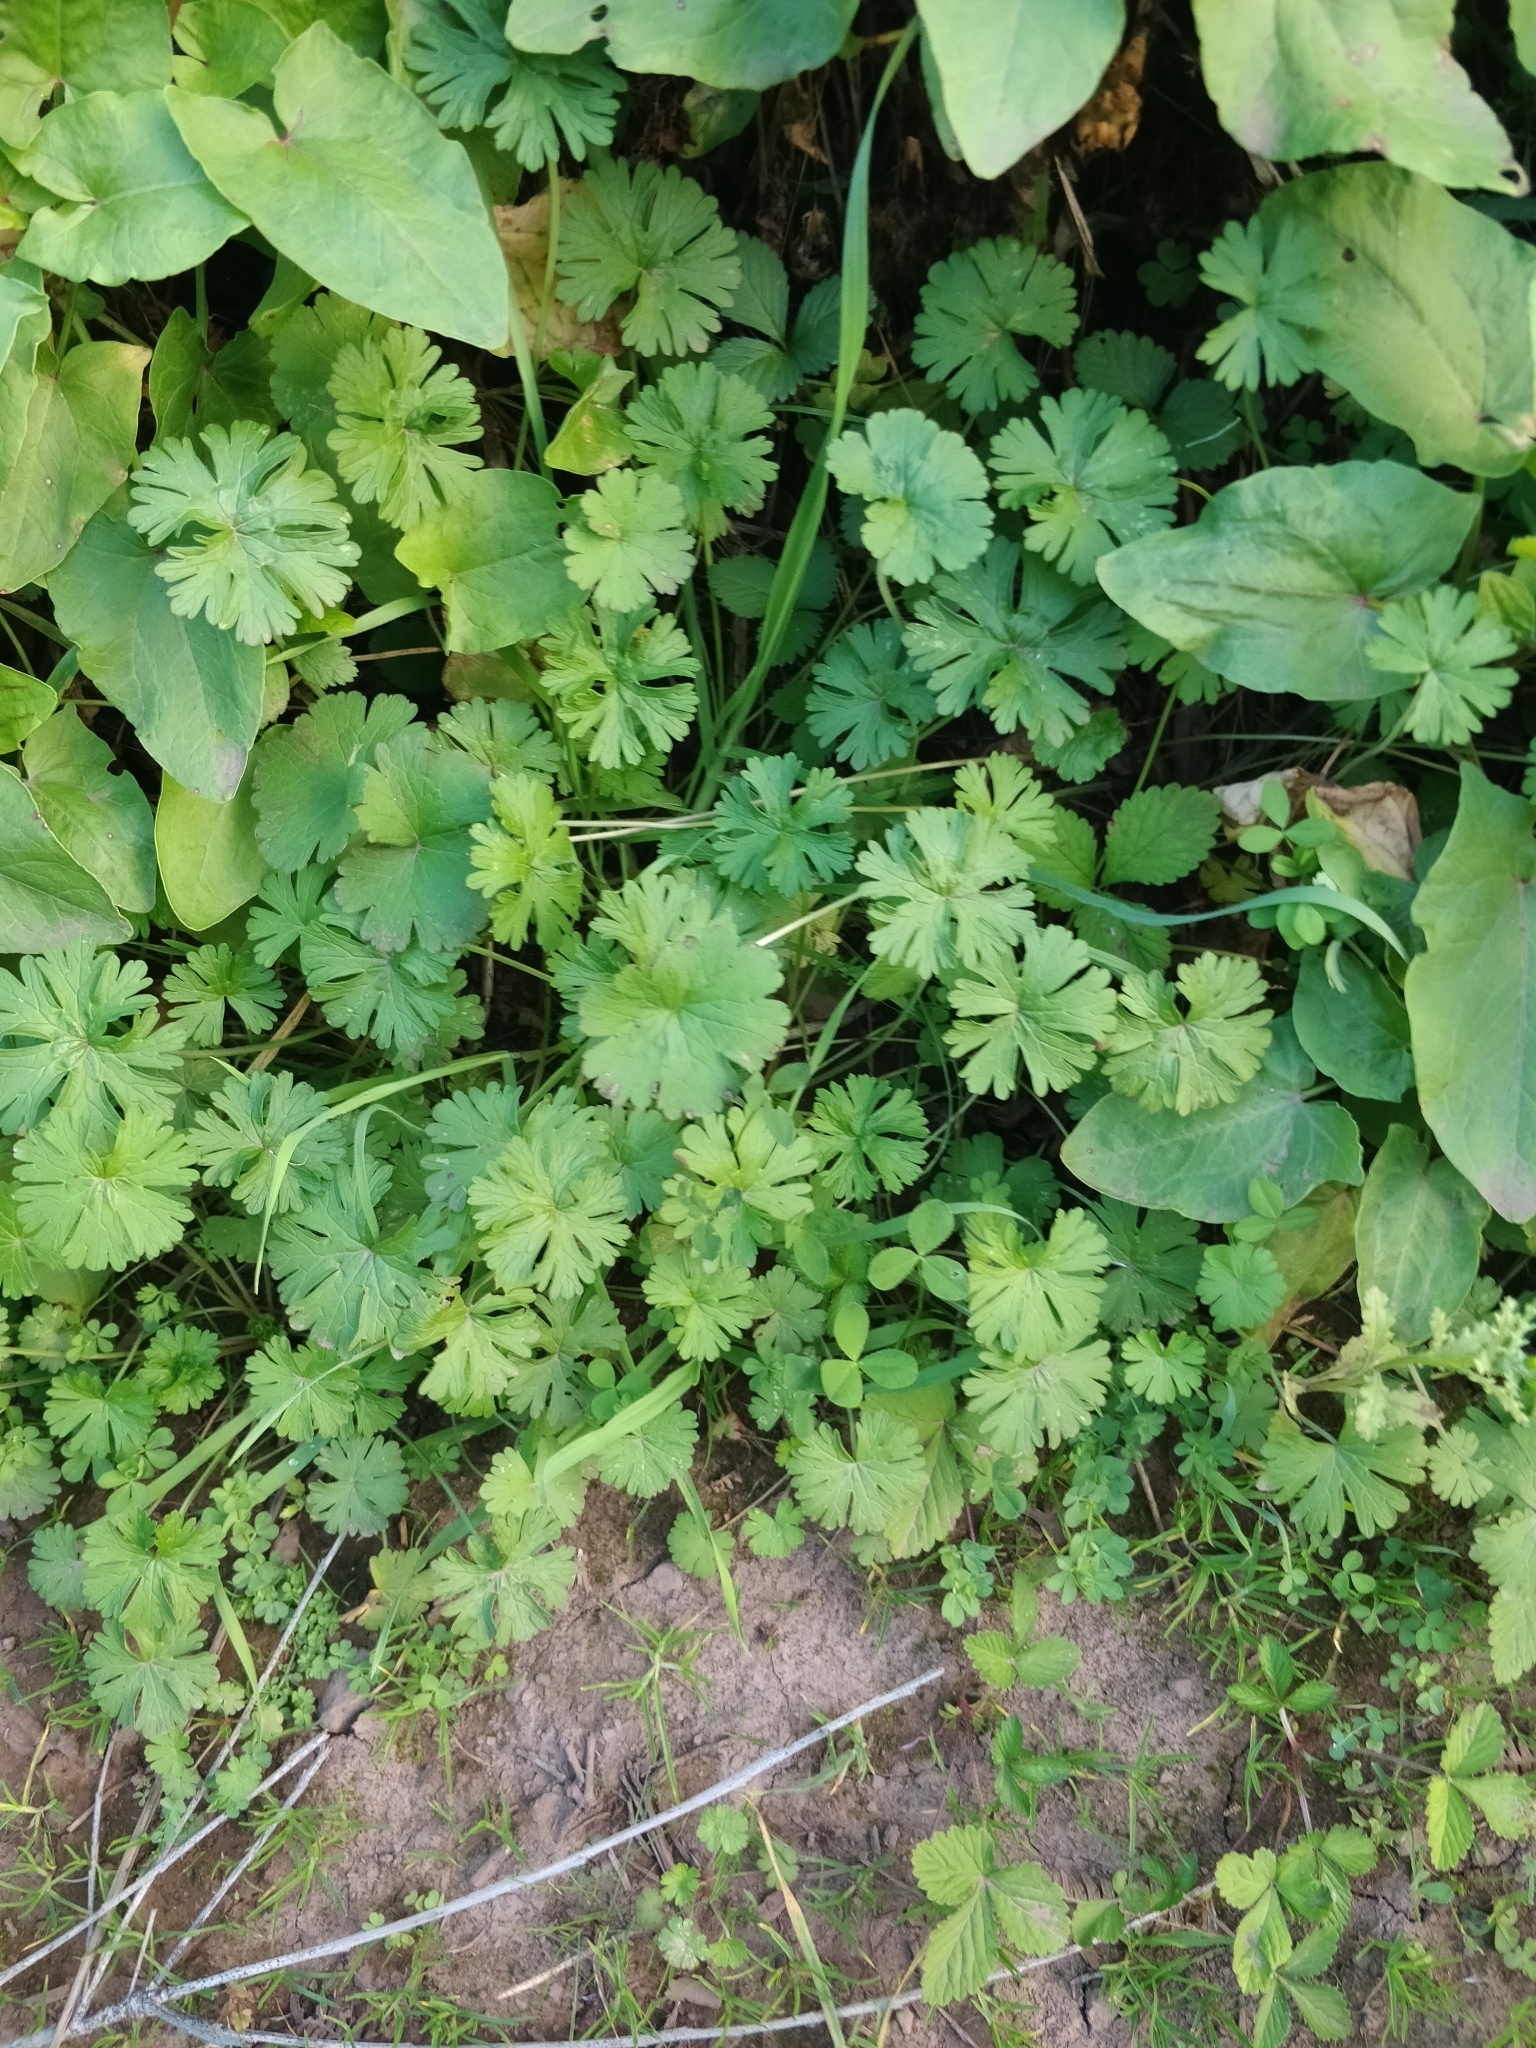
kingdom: Plantae
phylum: Tracheophyta
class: Magnoliopsida
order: Geraniales
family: Geraniaceae
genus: Geranium
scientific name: Geranium molle
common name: Dove's-foot crane's-bill
